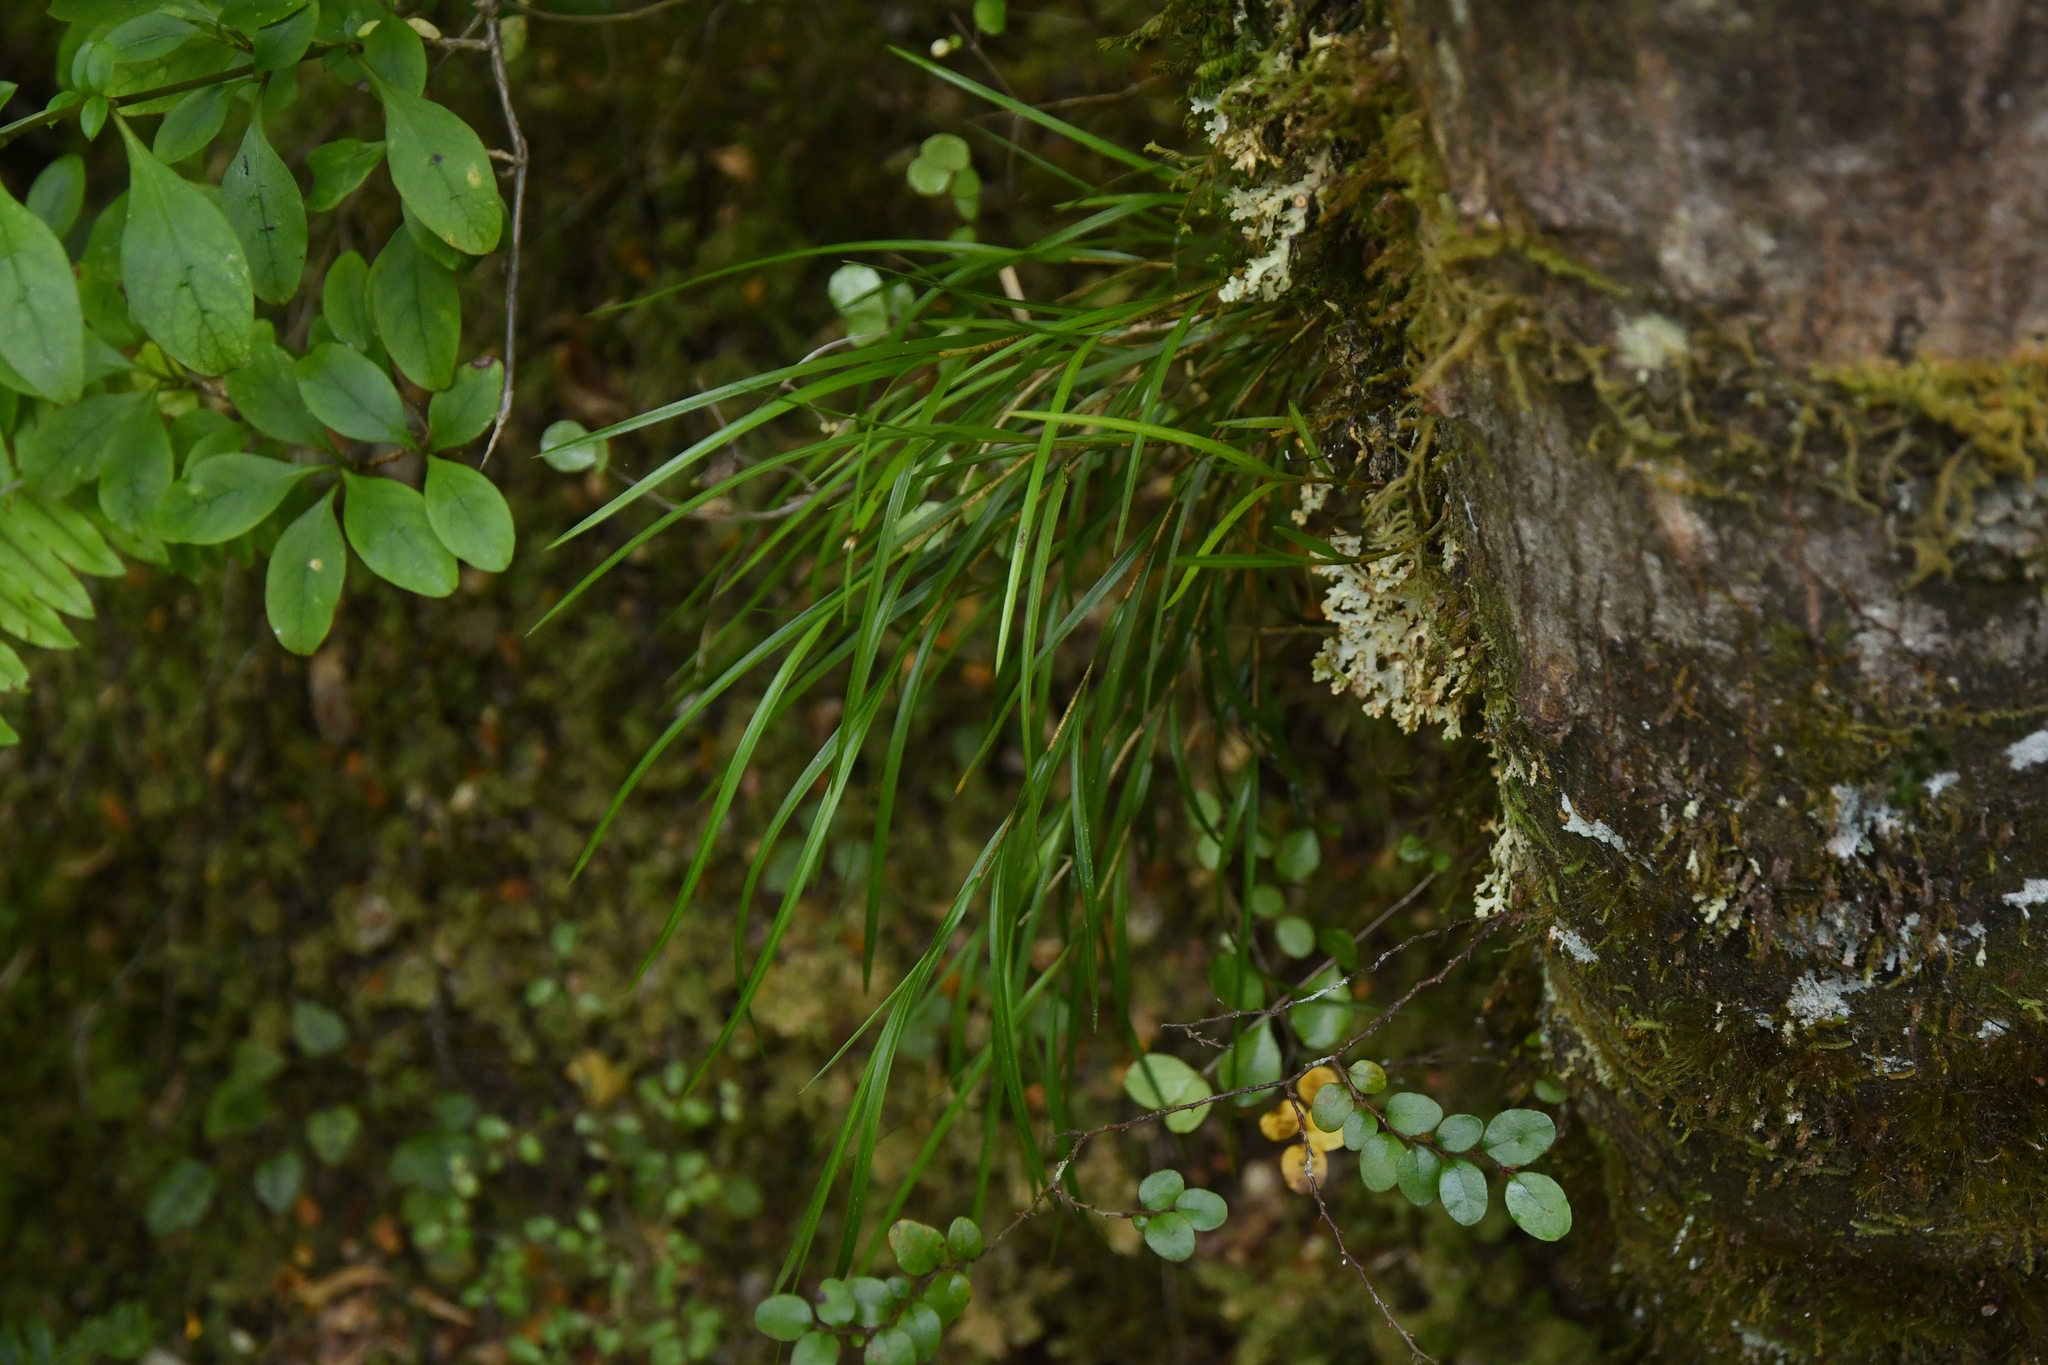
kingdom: Plantae
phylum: Tracheophyta
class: Liliopsida
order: Asparagales
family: Orchidaceae
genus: Earina
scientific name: Earina mucronata
